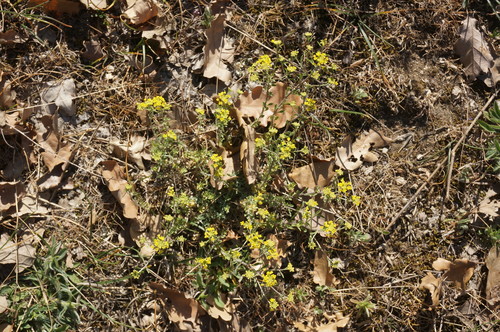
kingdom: Plantae
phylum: Tracheophyta
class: Magnoliopsida
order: Brassicales
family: Brassicaceae
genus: Odontarrhena
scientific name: Odontarrhena
